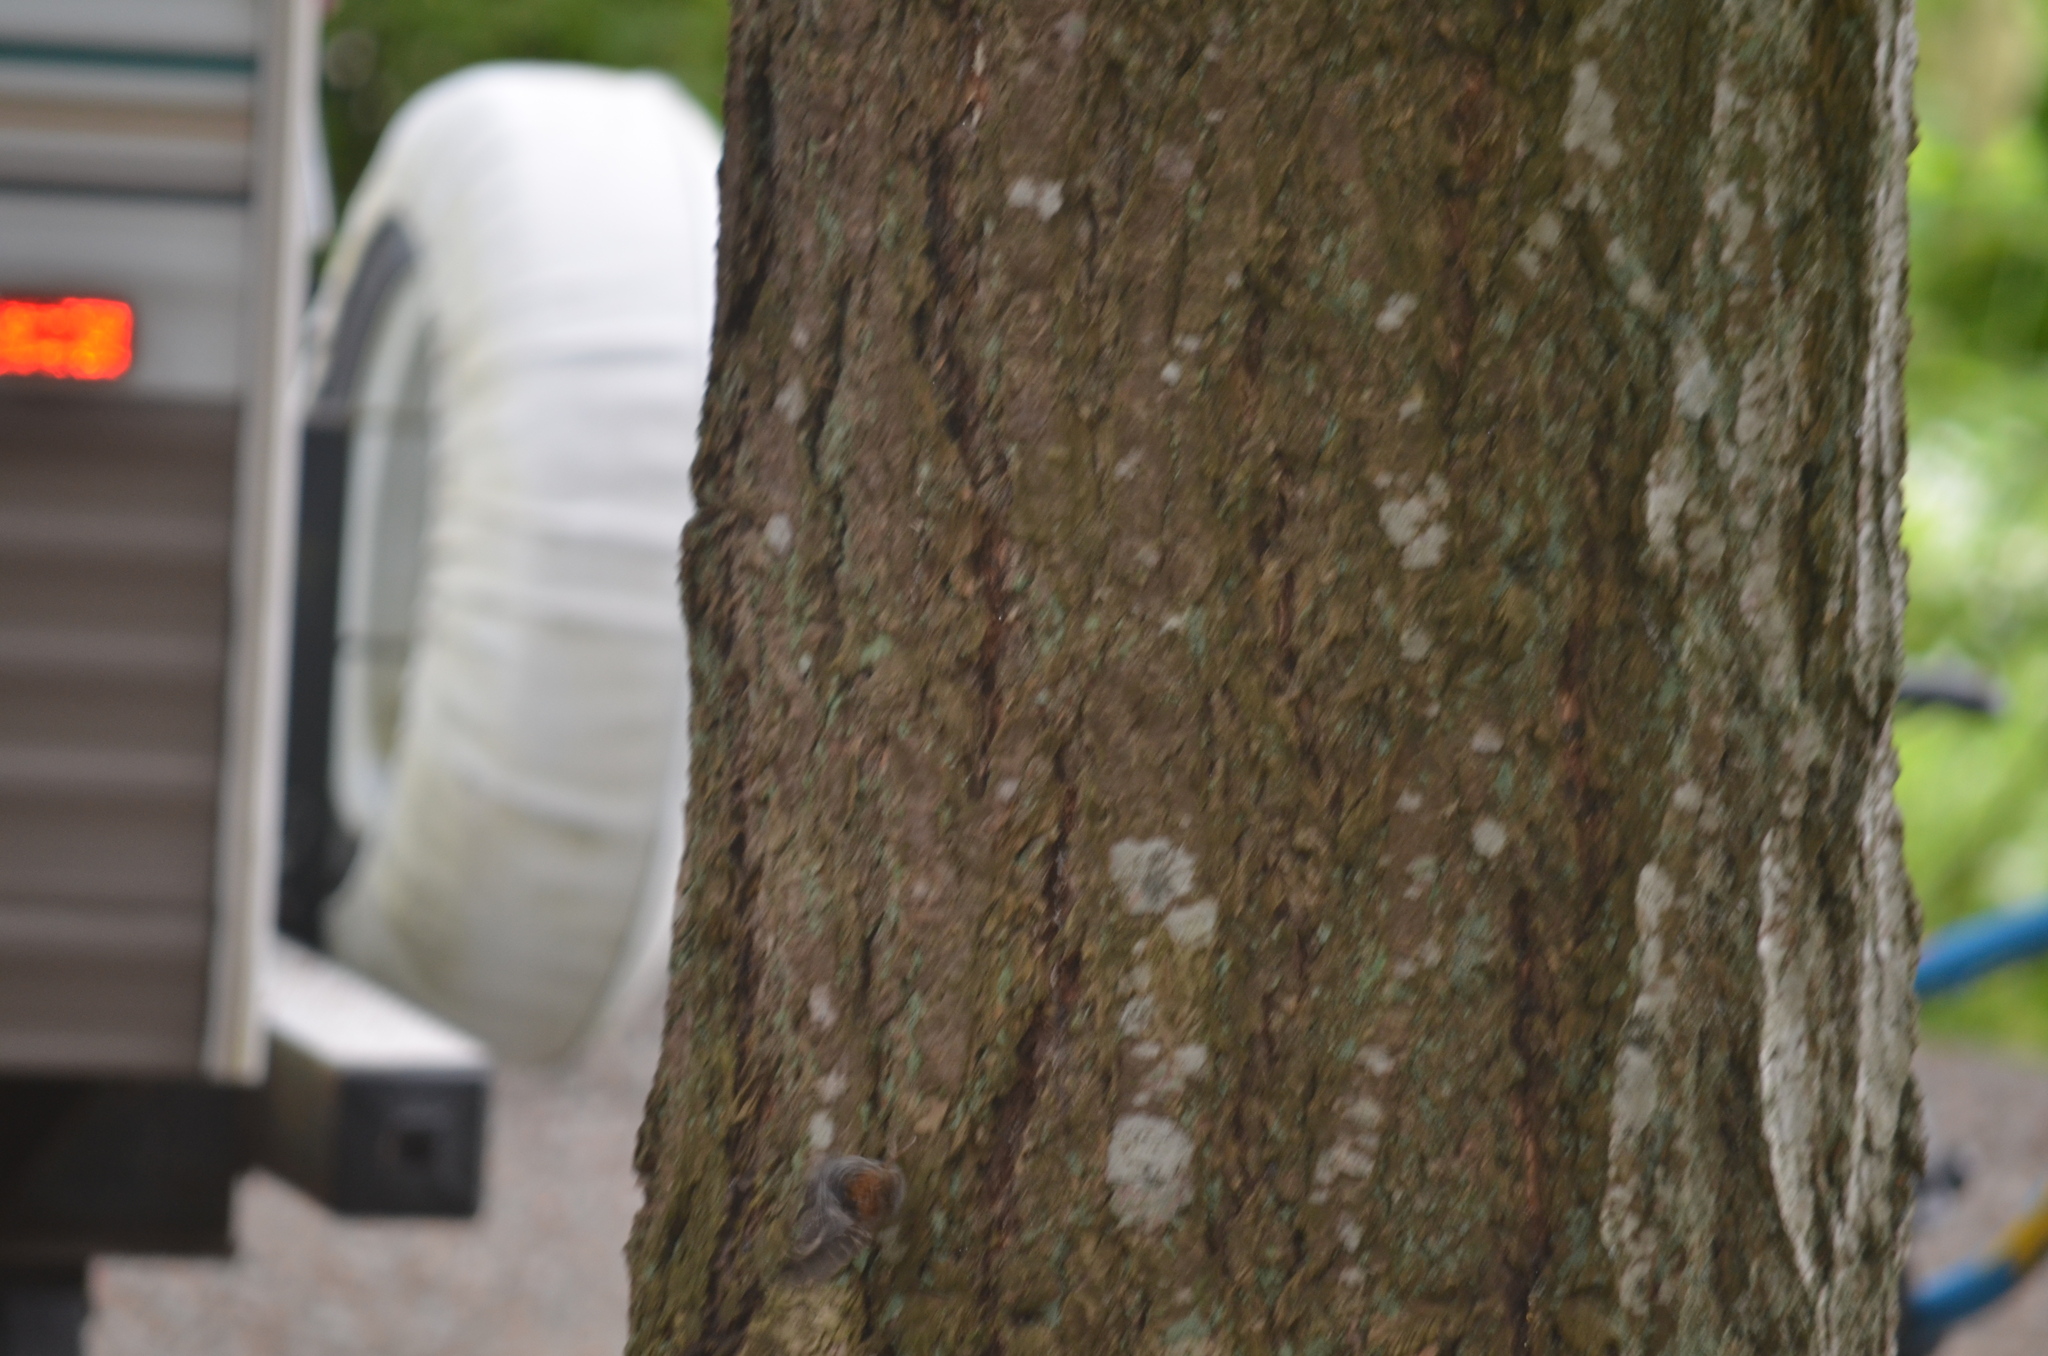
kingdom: Animalia
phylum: Chordata
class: Aves
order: Passeriformes
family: Certhiidae
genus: Certhia
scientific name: Certhia americana
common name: Brown creeper
